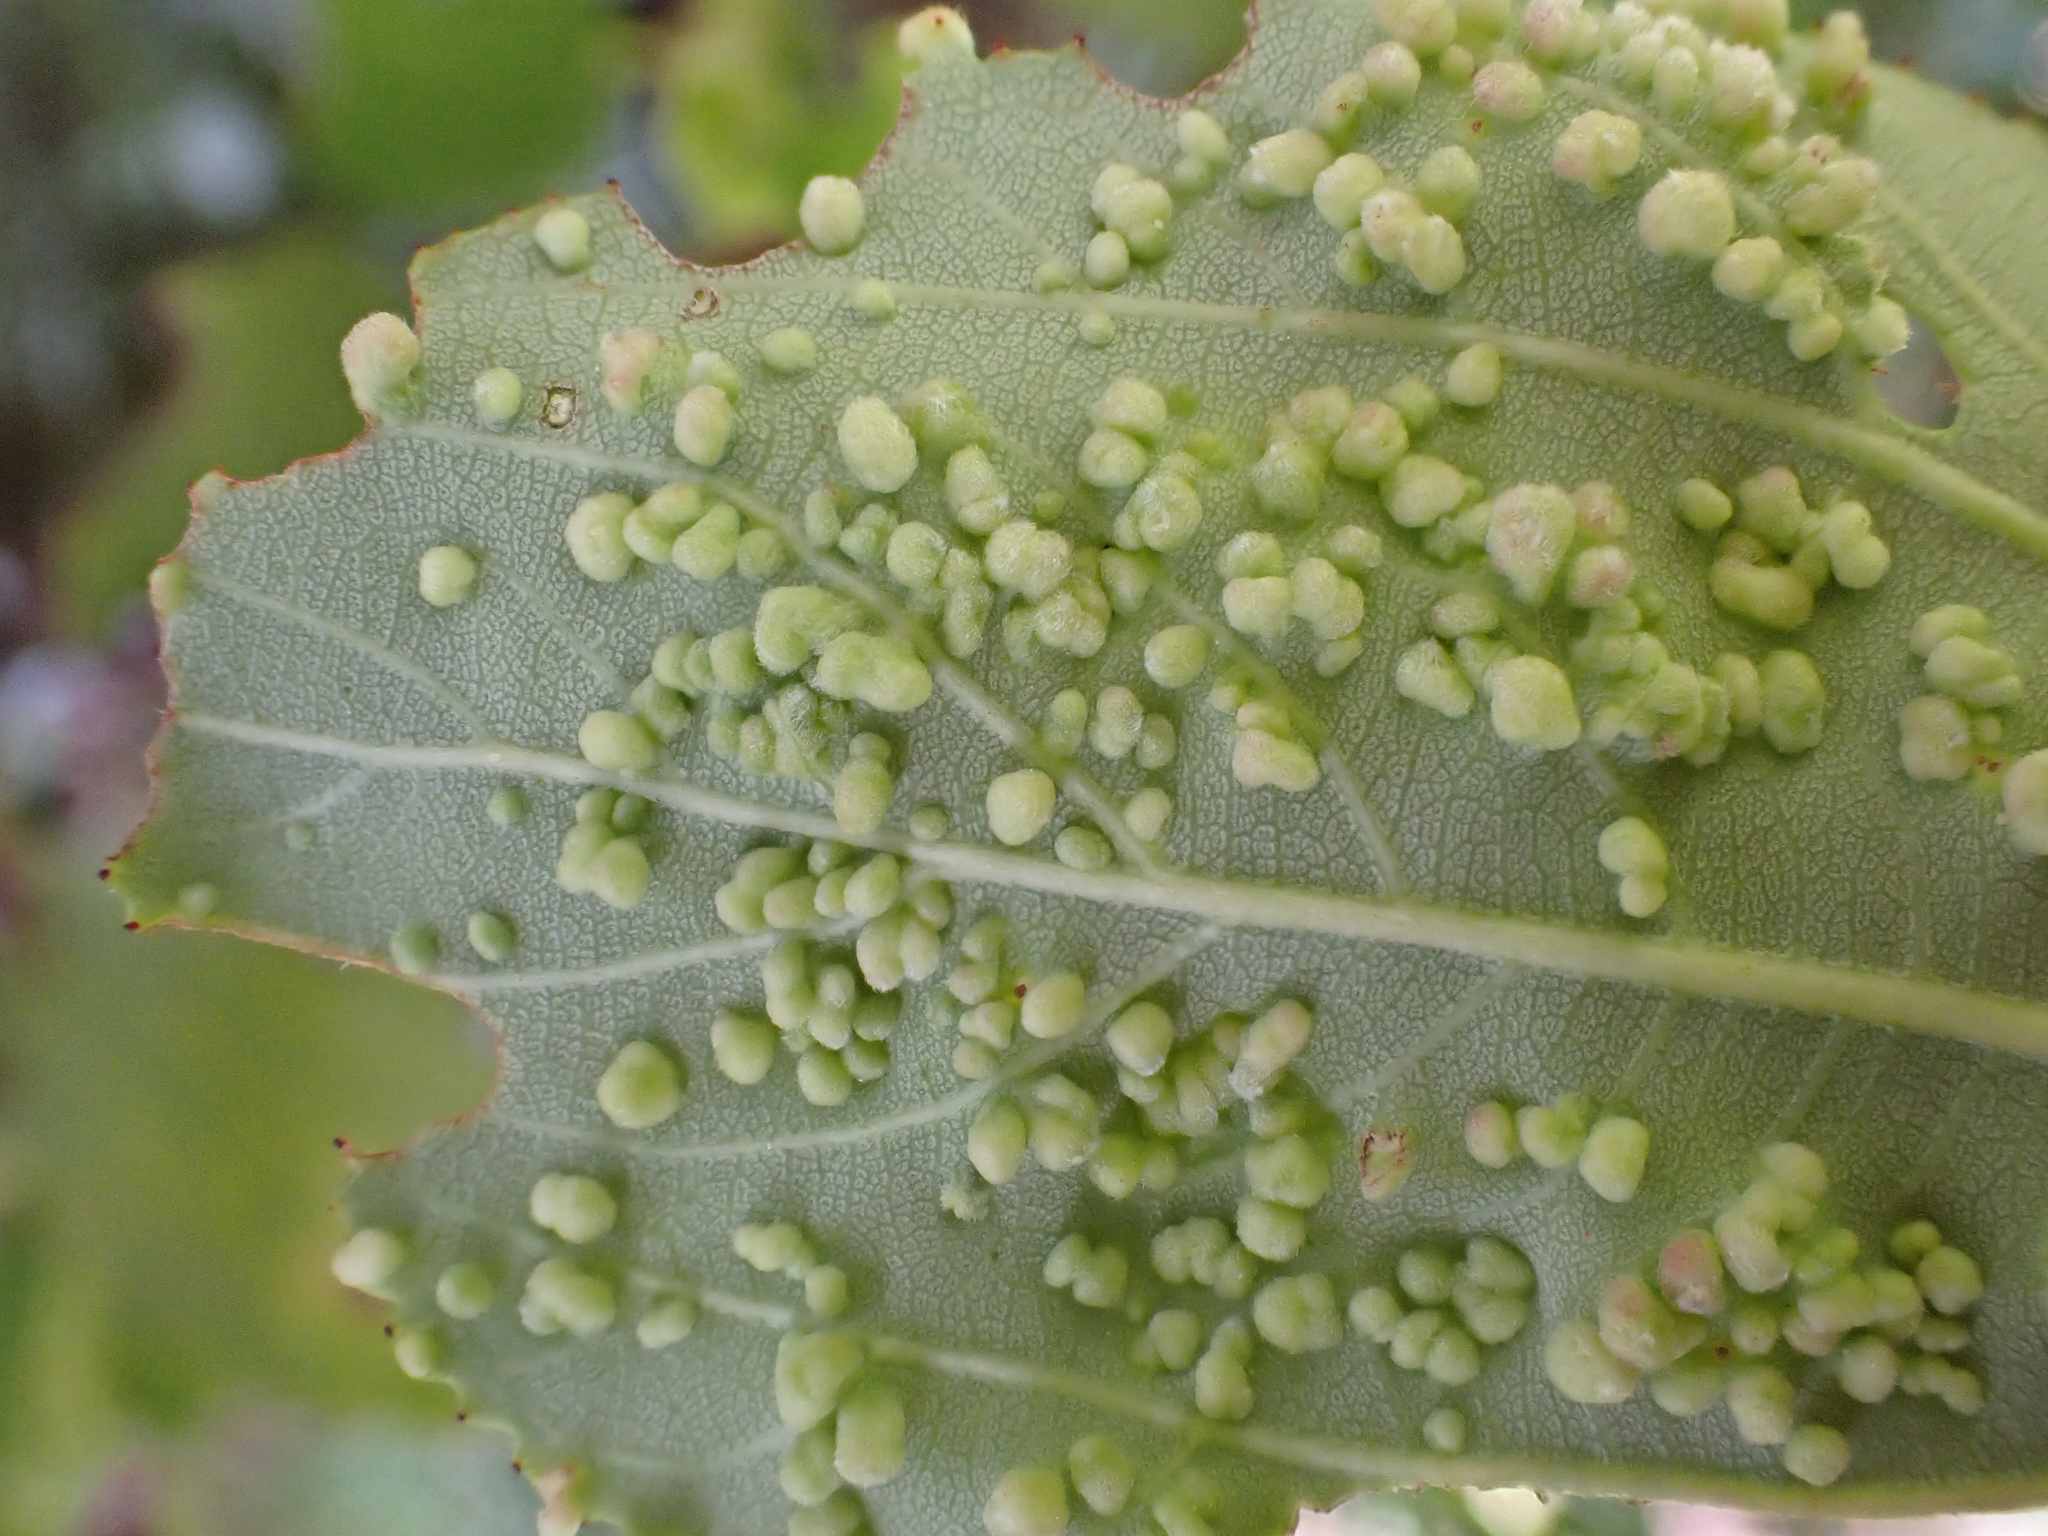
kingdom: Animalia
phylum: Arthropoda
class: Arachnida
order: Trombidiformes
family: Eriophyidae
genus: Aceria
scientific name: Aceria
